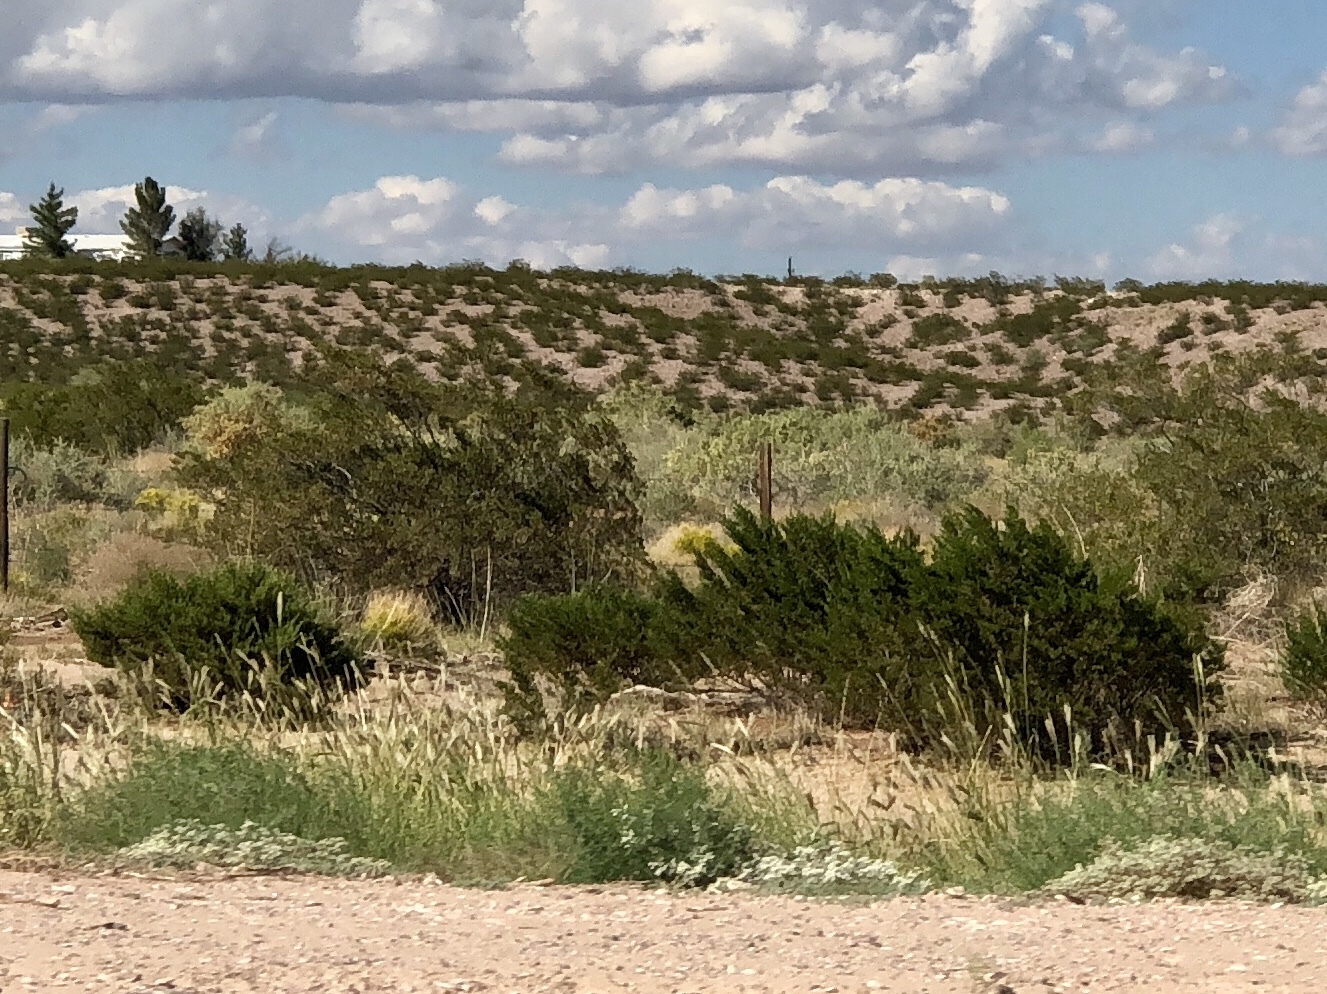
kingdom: Plantae
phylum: Tracheophyta
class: Magnoliopsida
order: Zygophyllales
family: Zygophyllaceae
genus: Larrea
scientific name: Larrea tridentata
